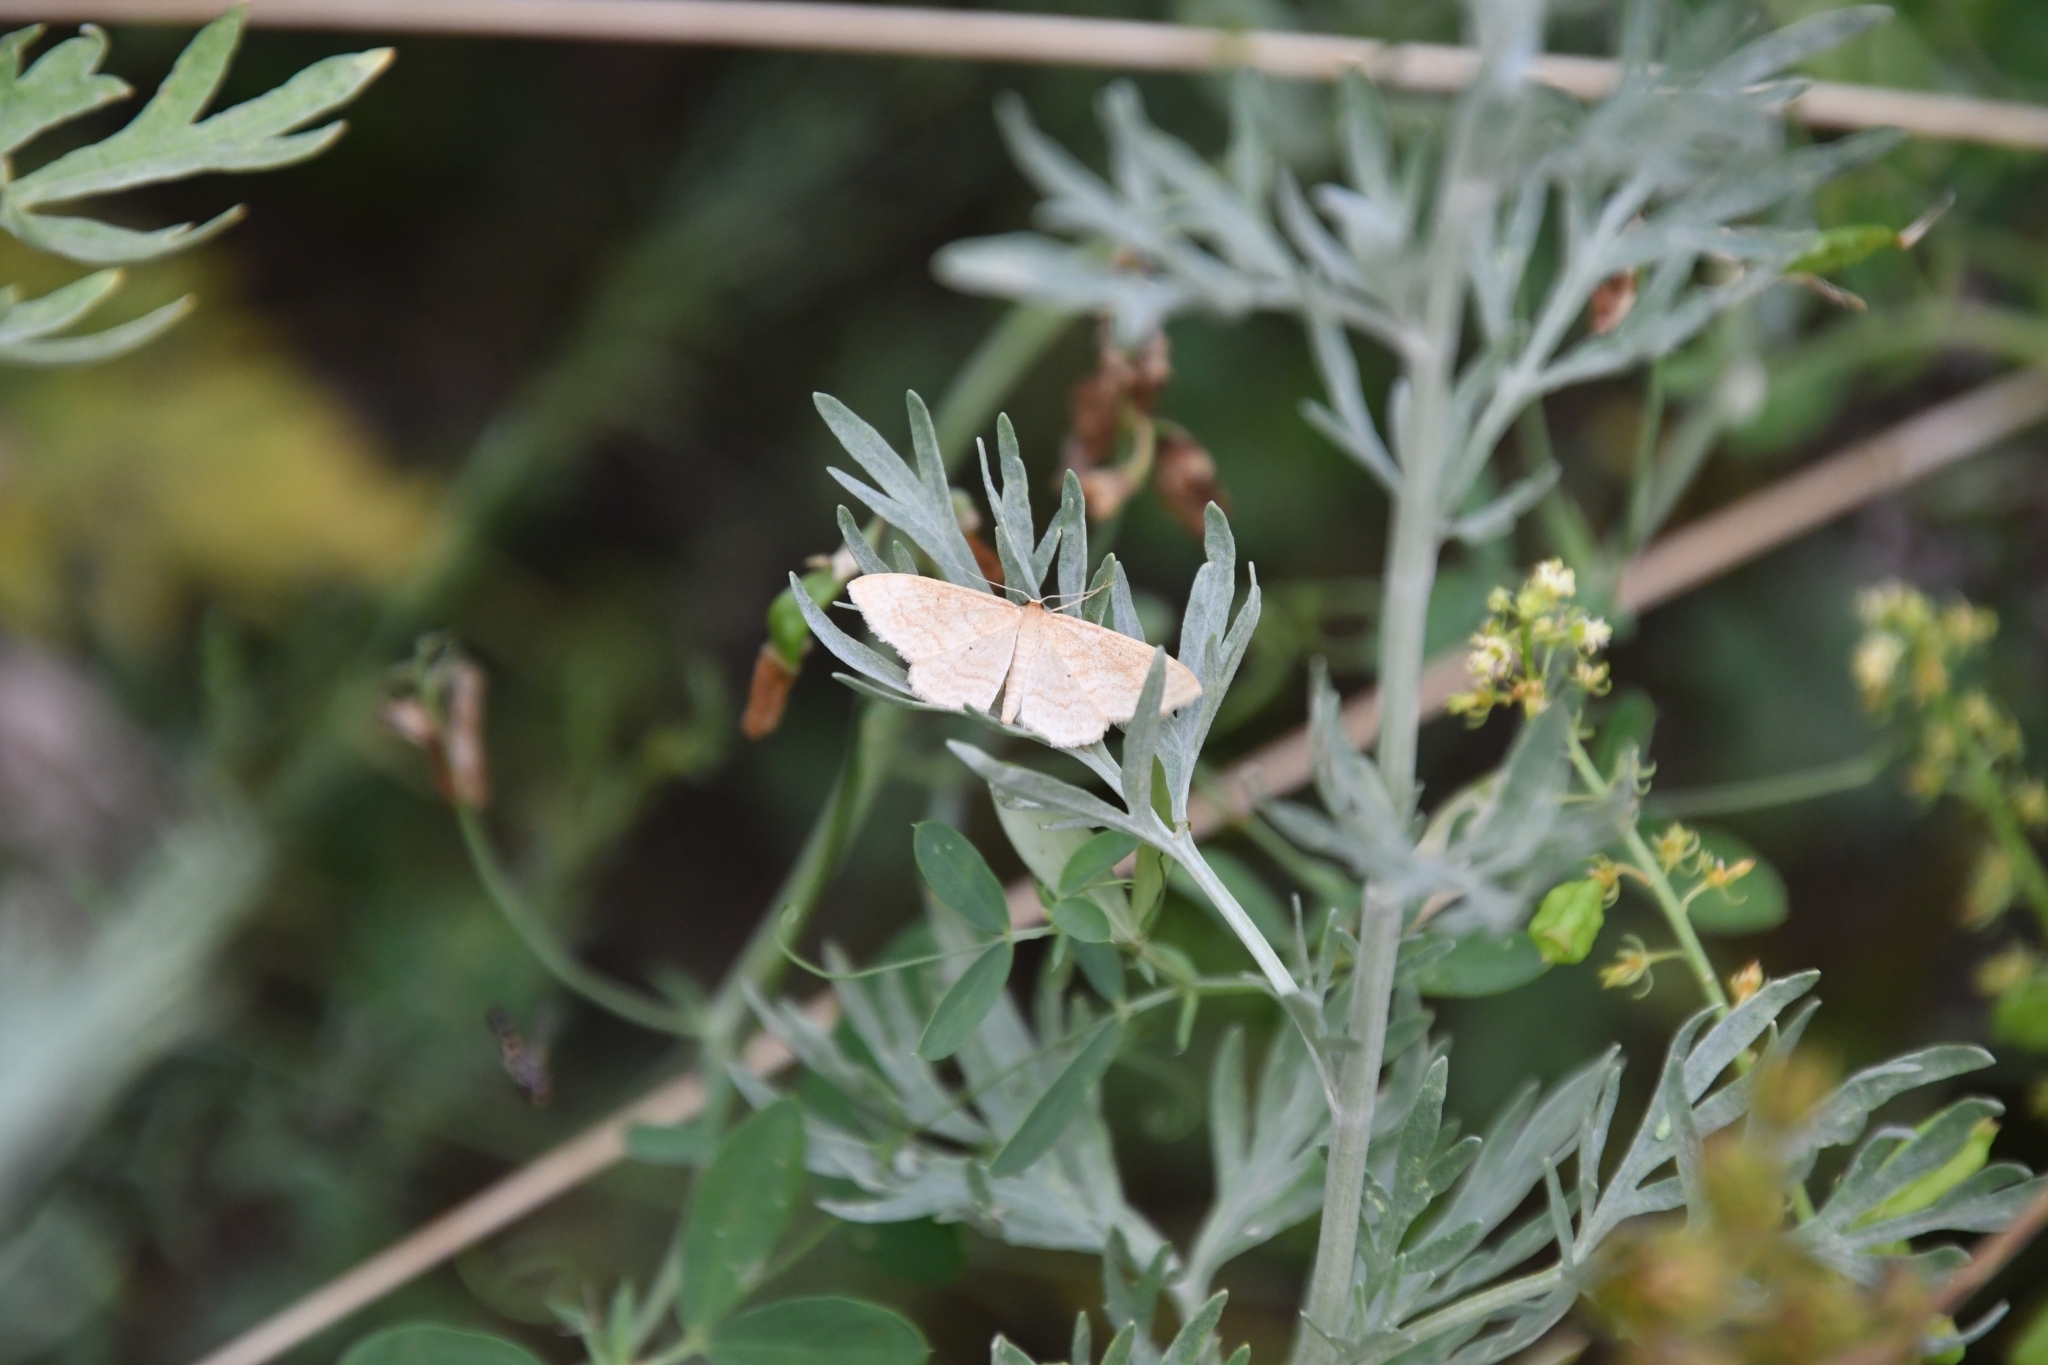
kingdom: Animalia
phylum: Arthropoda
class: Insecta
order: Lepidoptera
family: Geometridae
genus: Idaea
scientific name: Idaea rufaria
